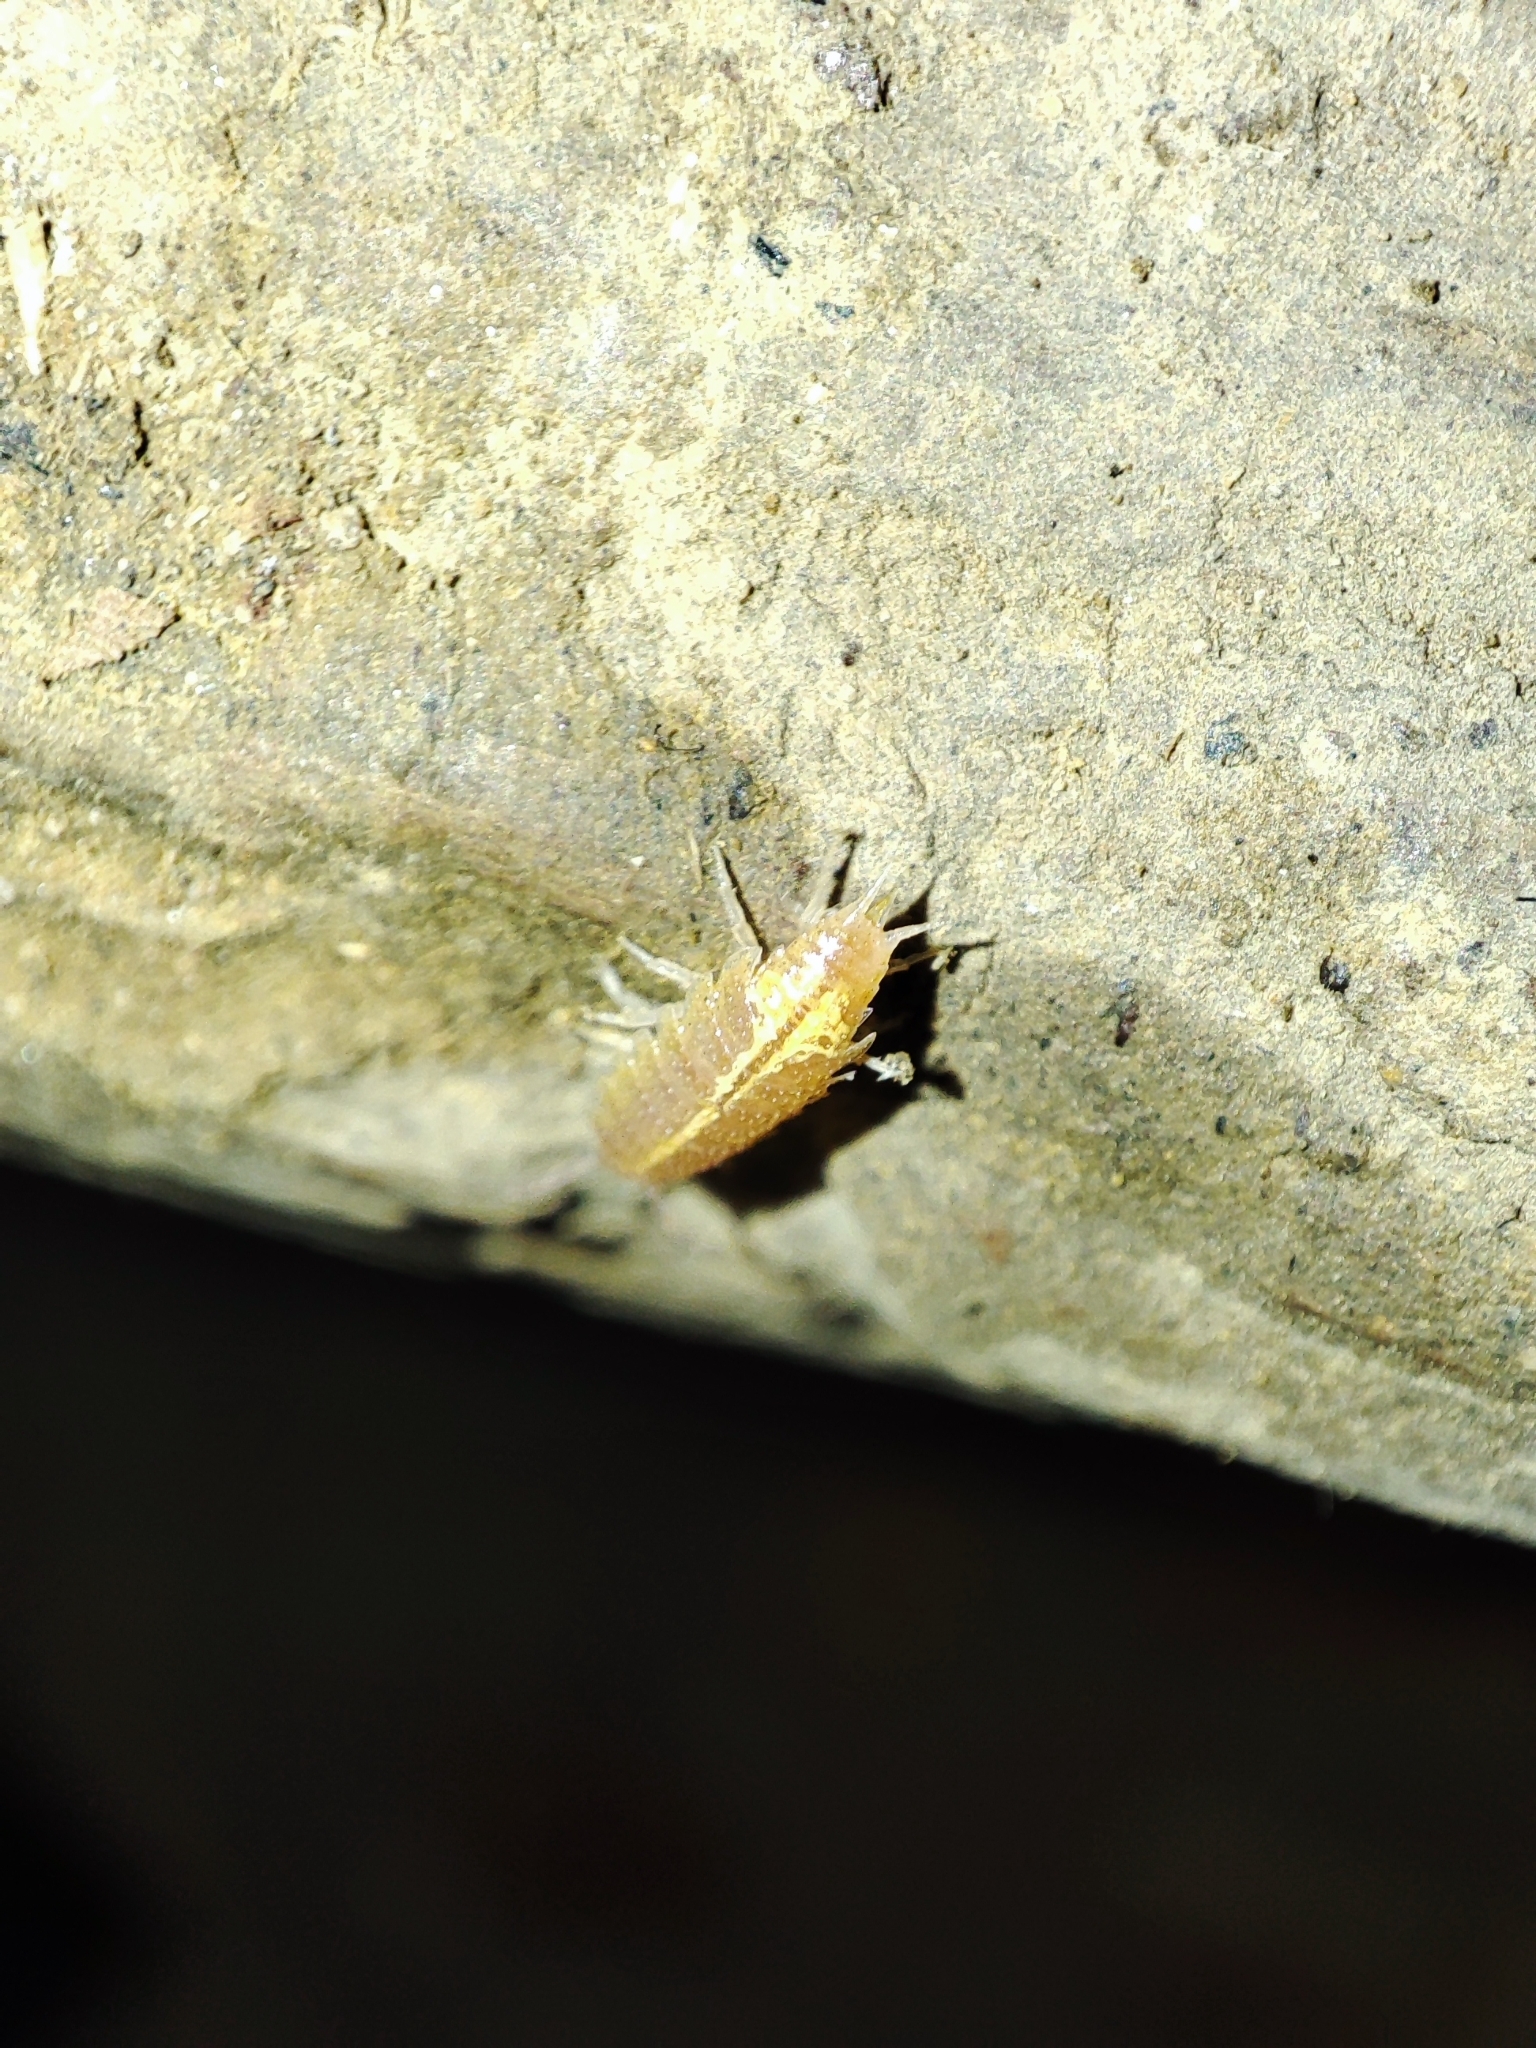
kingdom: Animalia
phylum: Arthropoda
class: Malacostraca
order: Isopoda
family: Trichoniscidae
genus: Androniscus
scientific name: Androniscus dentiger
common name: Rosy woodlouse
